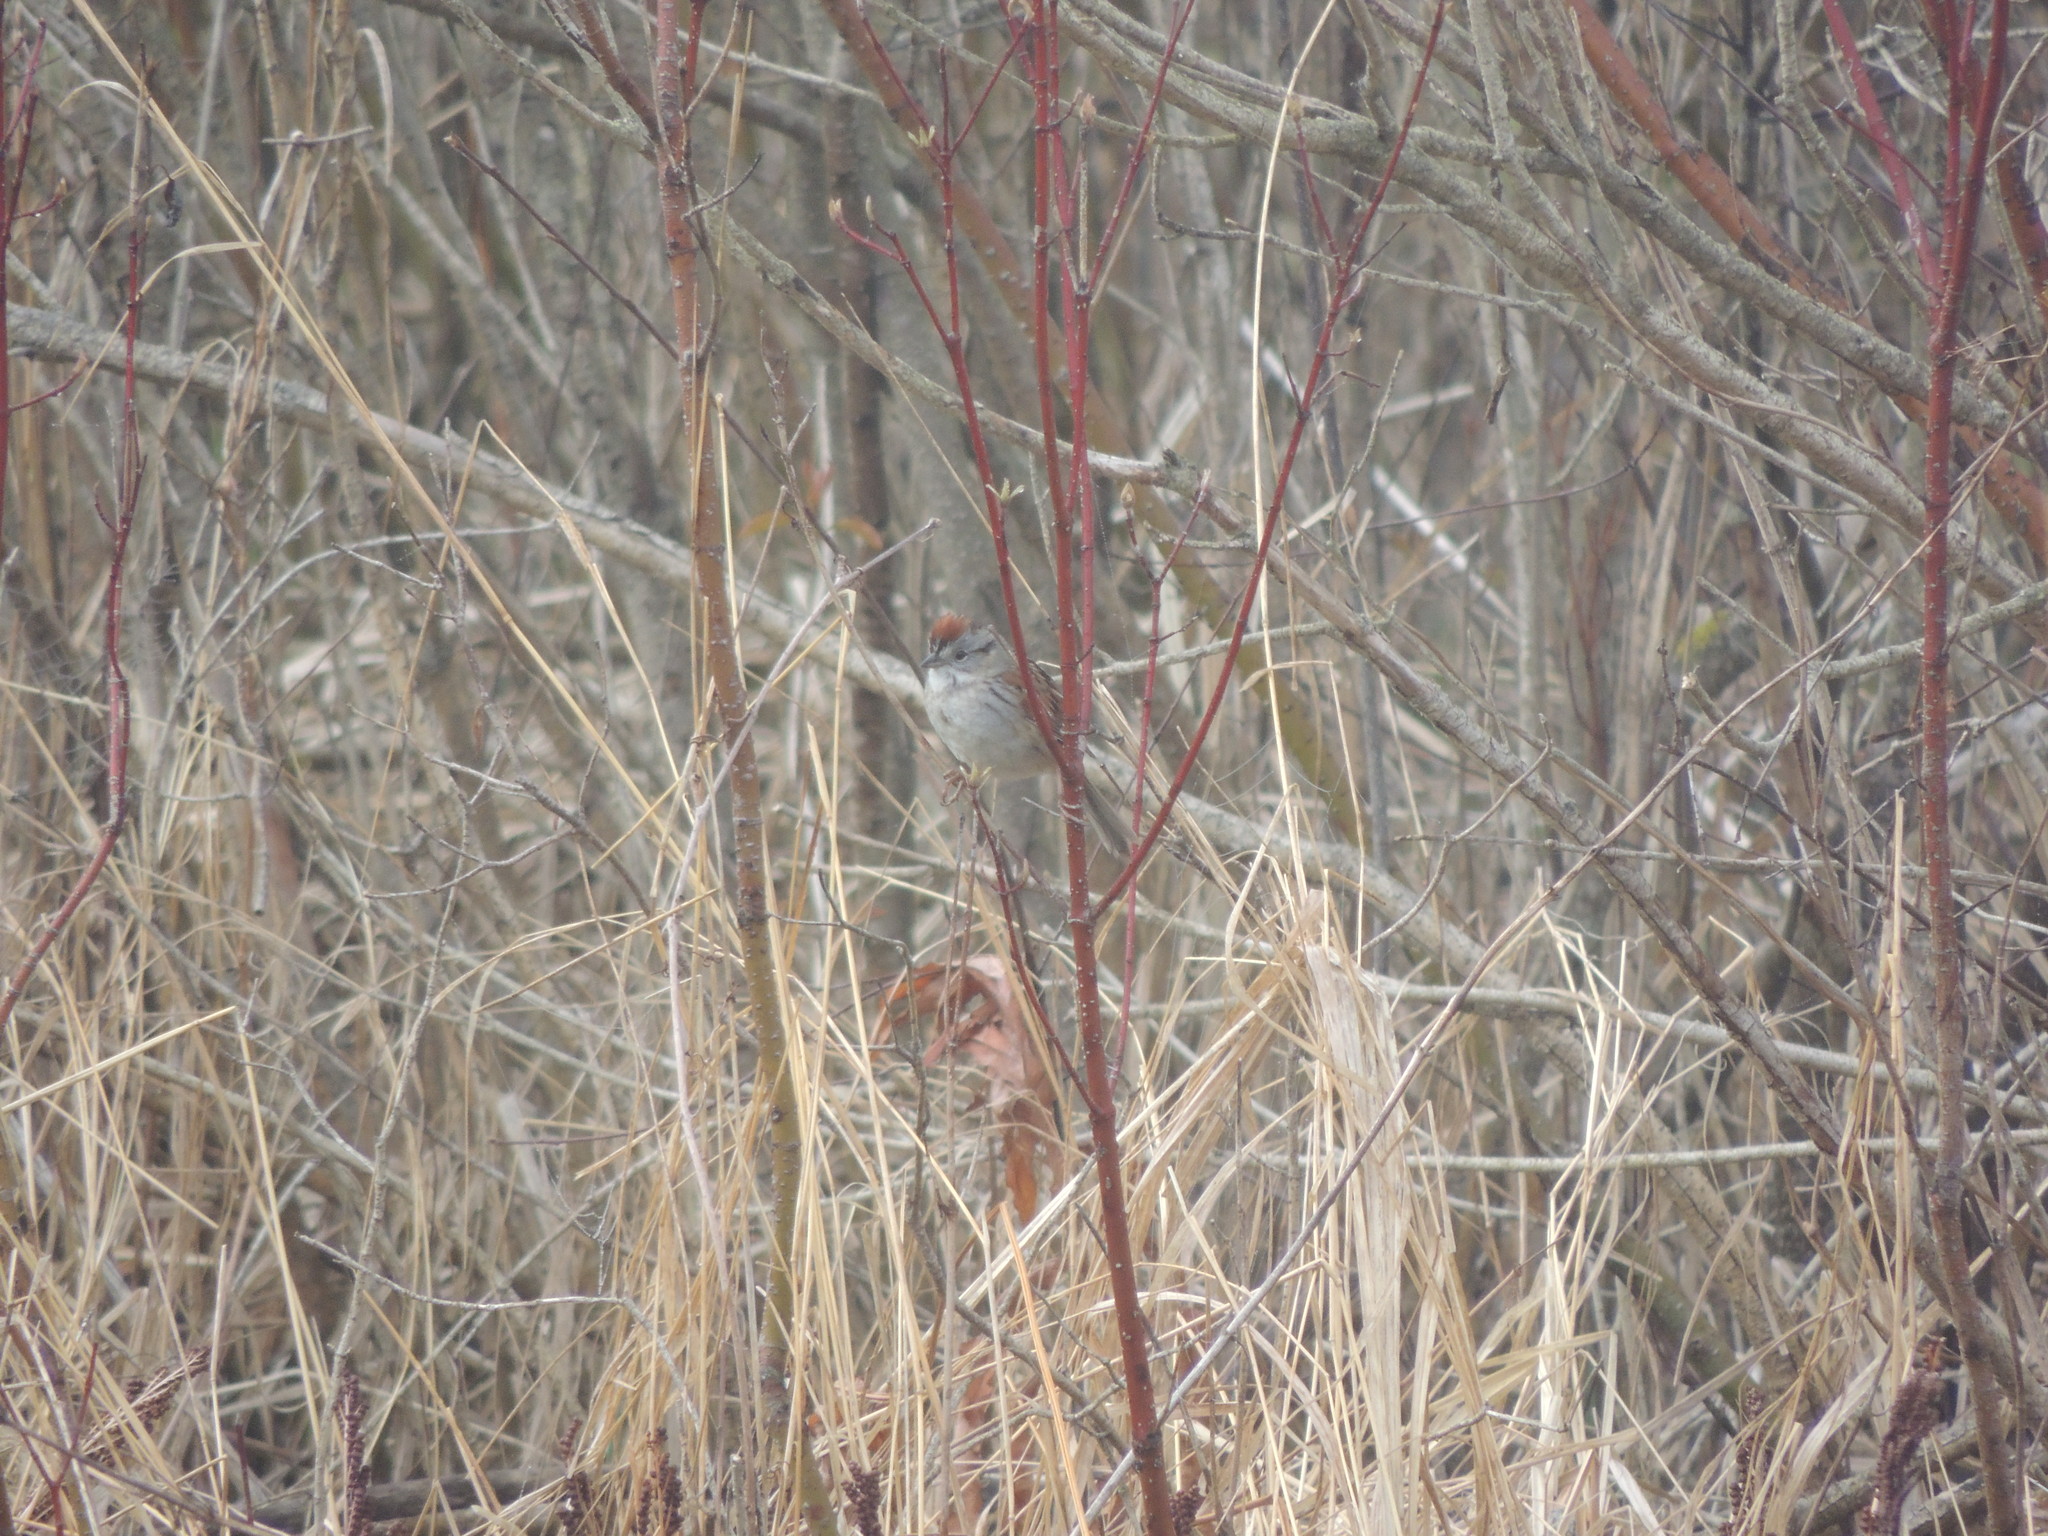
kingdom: Animalia
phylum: Chordata
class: Aves
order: Passeriformes
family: Passerellidae
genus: Melospiza
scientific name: Melospiza georgiana
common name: Swamp sparrow
